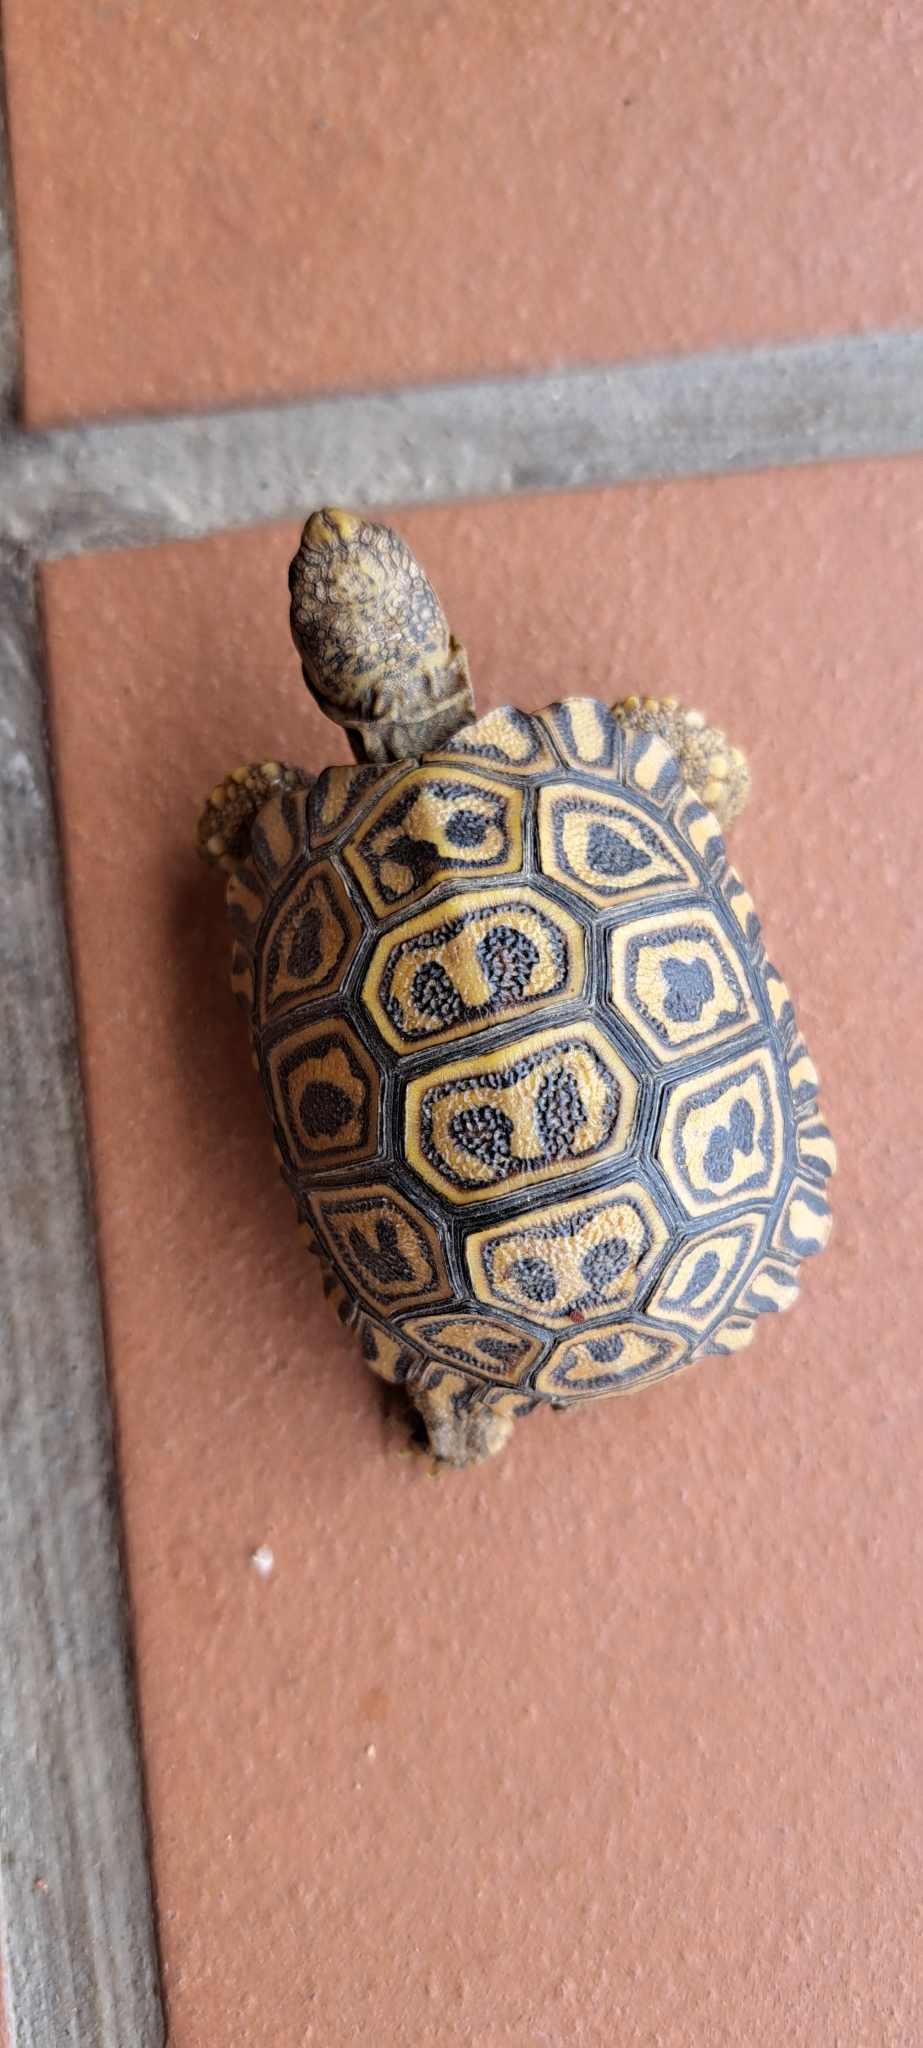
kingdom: Animalia
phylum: Chordata
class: Testudines
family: Testudinidae
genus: Stigmochelys
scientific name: Stigmochelys pardalis
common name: Leopard tortoise
